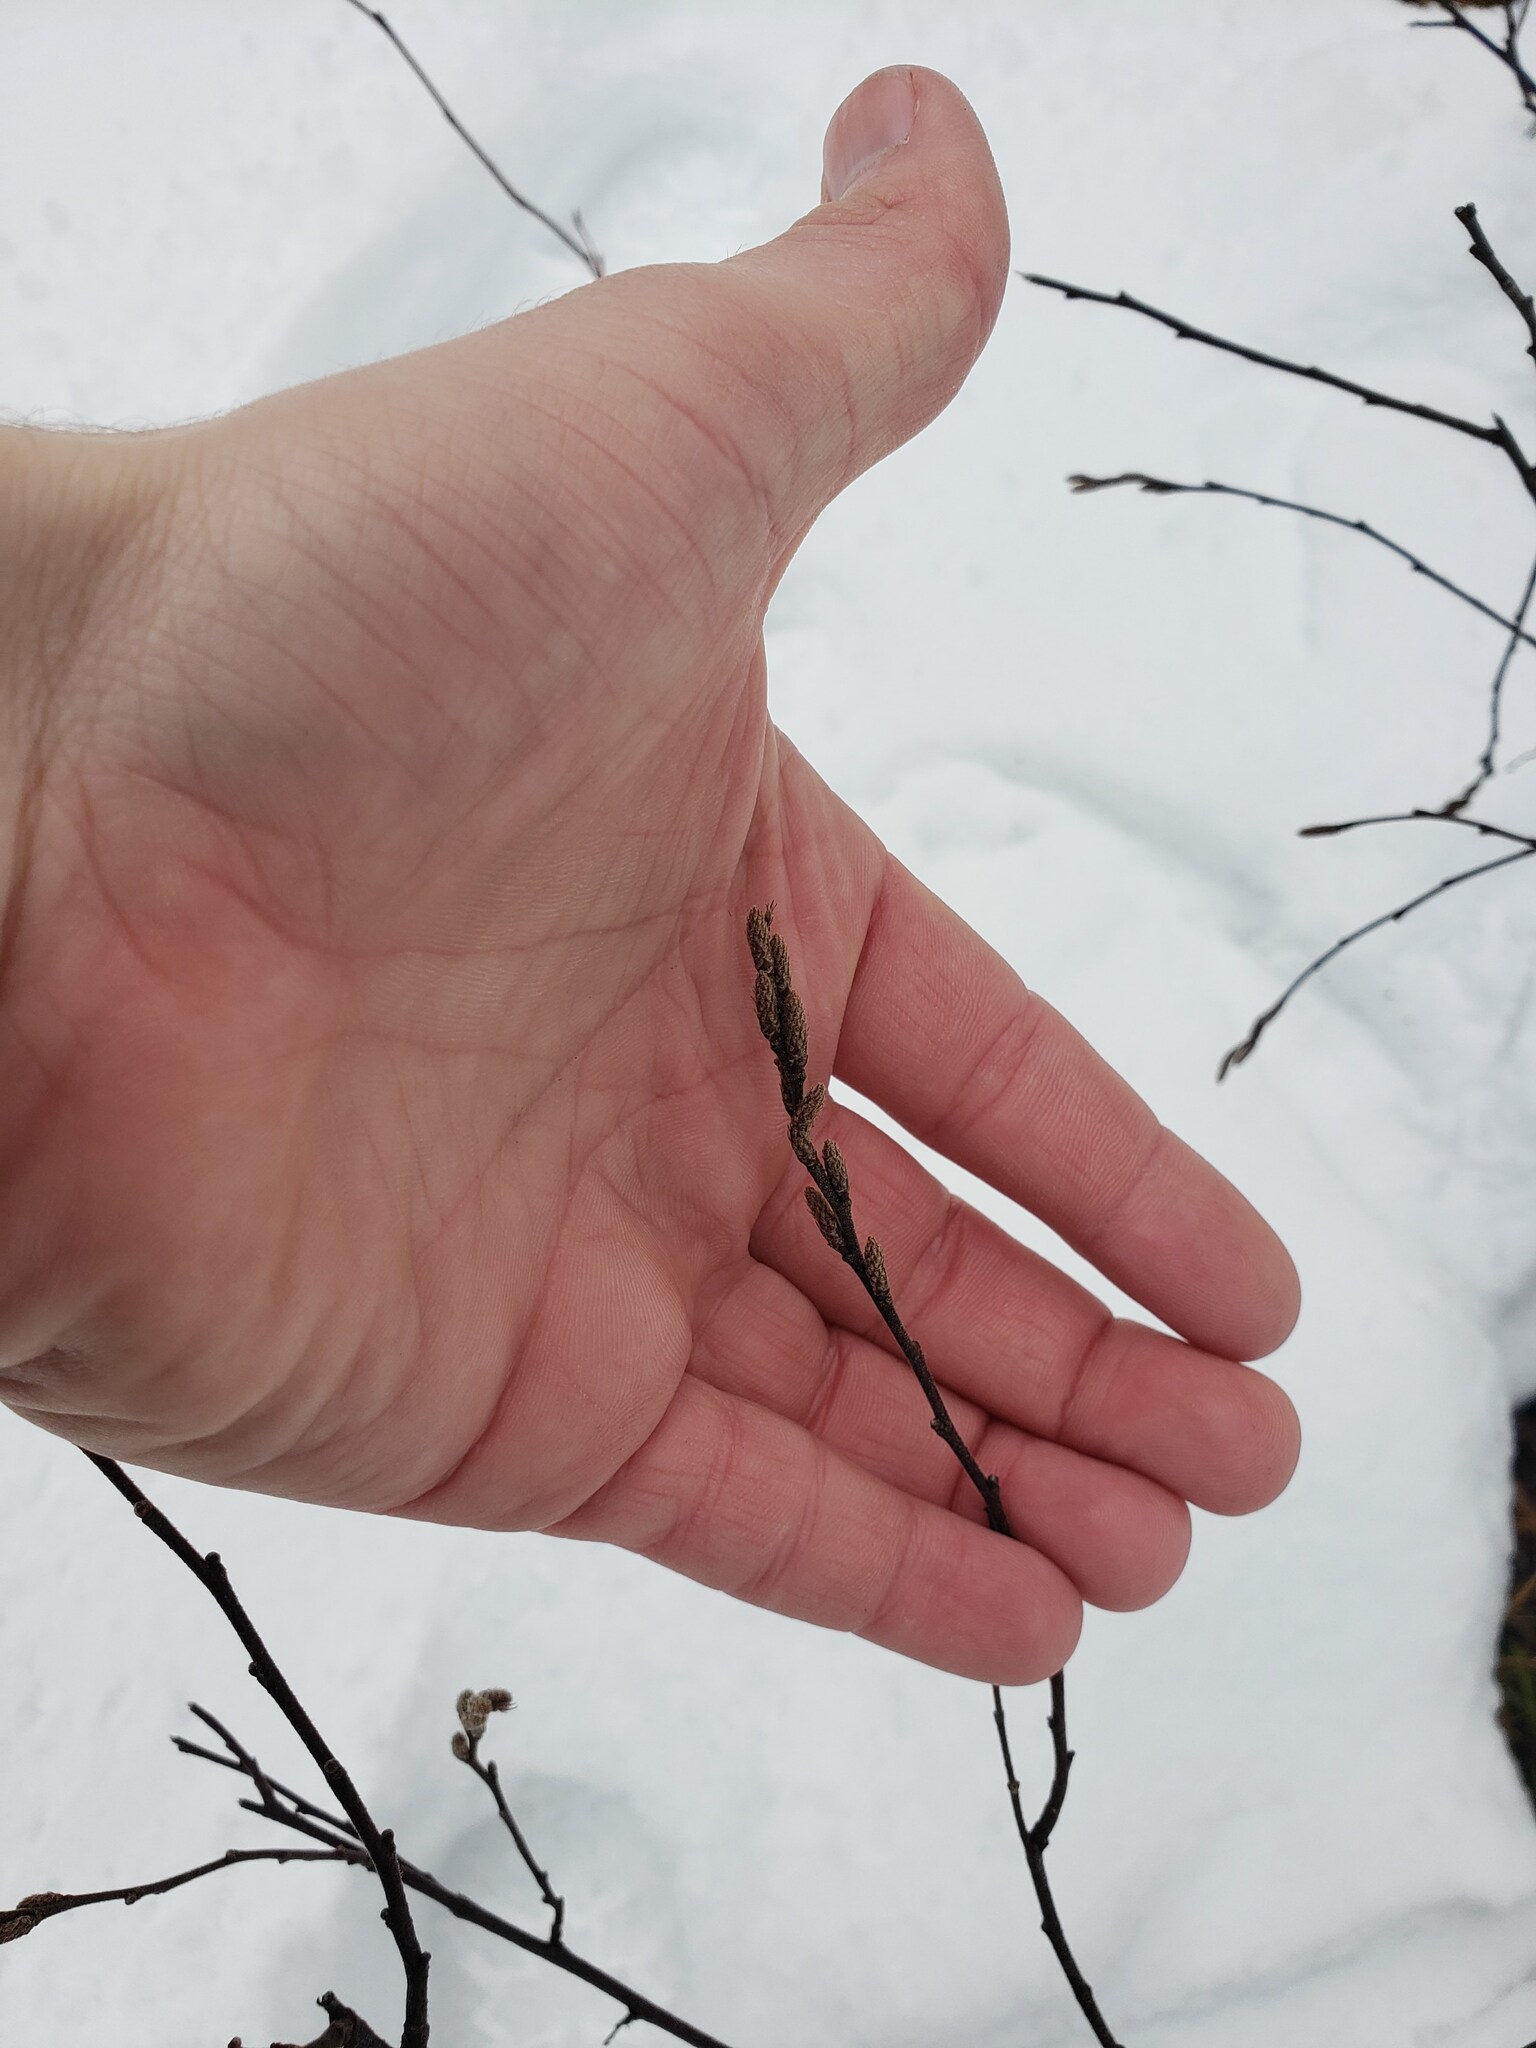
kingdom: Plantae
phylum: Tracheophyta
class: Magnoliopsida
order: Fagales
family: Myricaceae
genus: Comptonia
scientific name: Comptonia peregrina
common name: Sweet-fern
